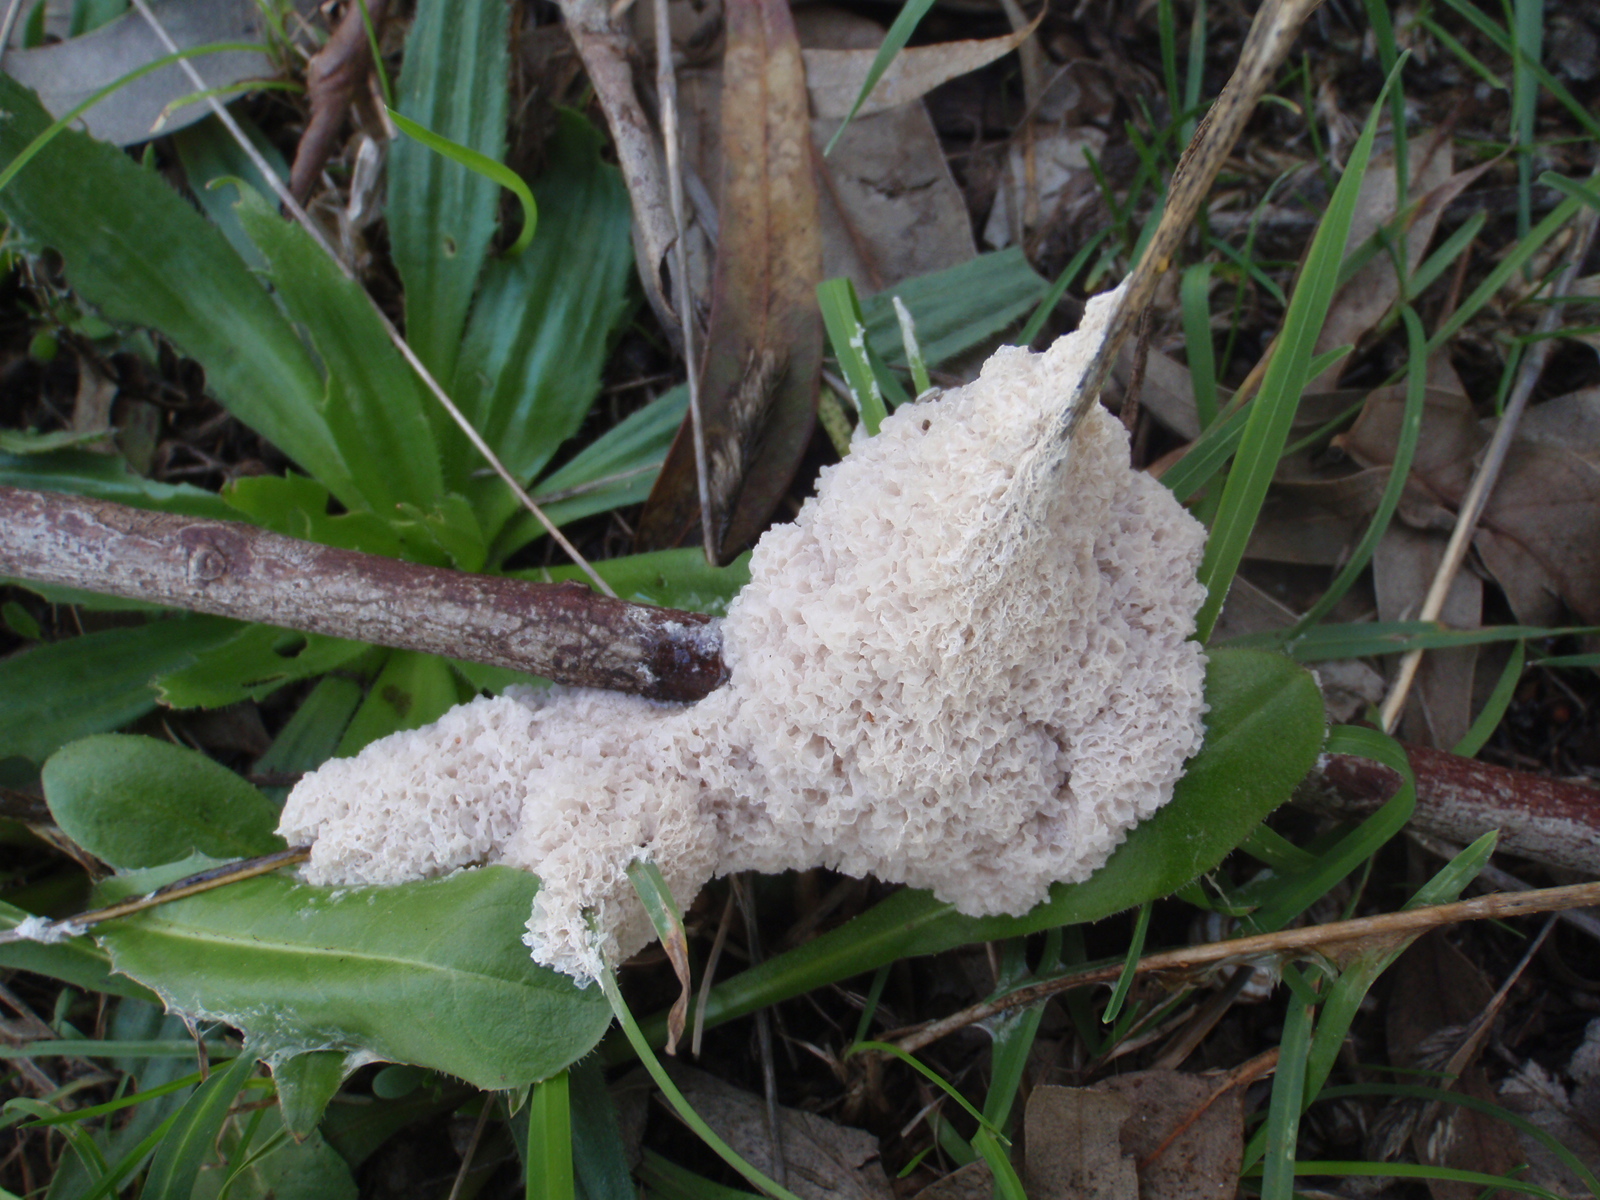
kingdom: Protozoa
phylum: Mycetozoa
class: Myxomycetes
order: Physarales
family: Physaraceae
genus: Didymium
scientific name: Didymium
